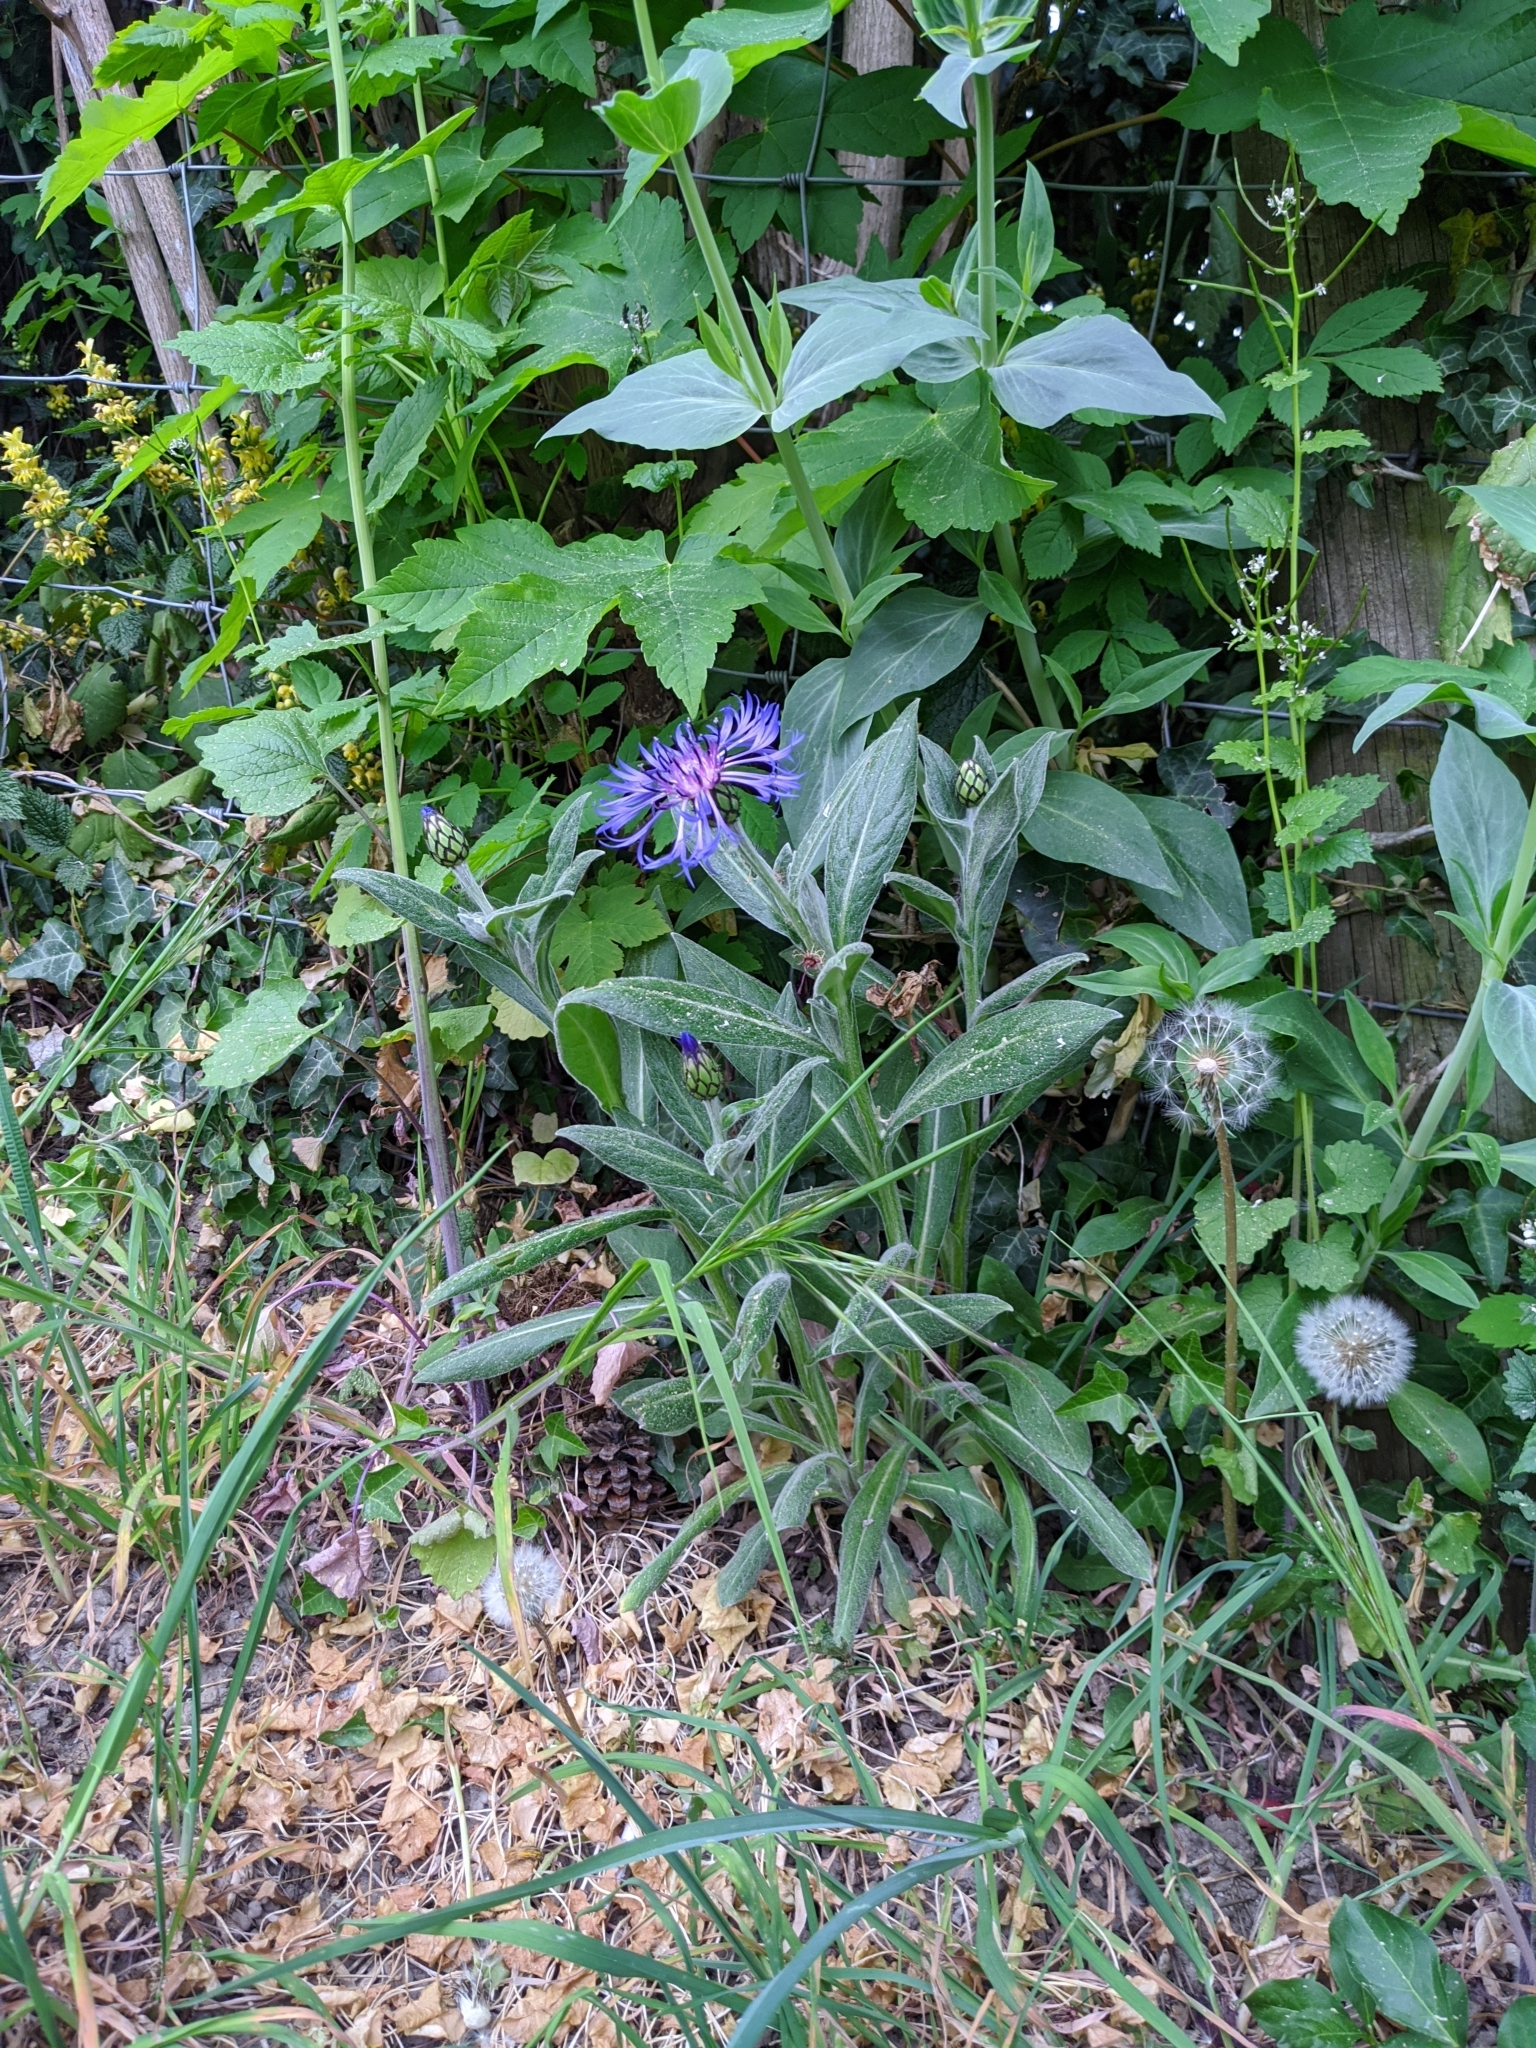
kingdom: Plantae
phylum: Tracheophyta
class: Magnoliopsida
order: Asterales
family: Asteraceae
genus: Centaurea
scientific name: Centaurea montana
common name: Perennial cornflower
